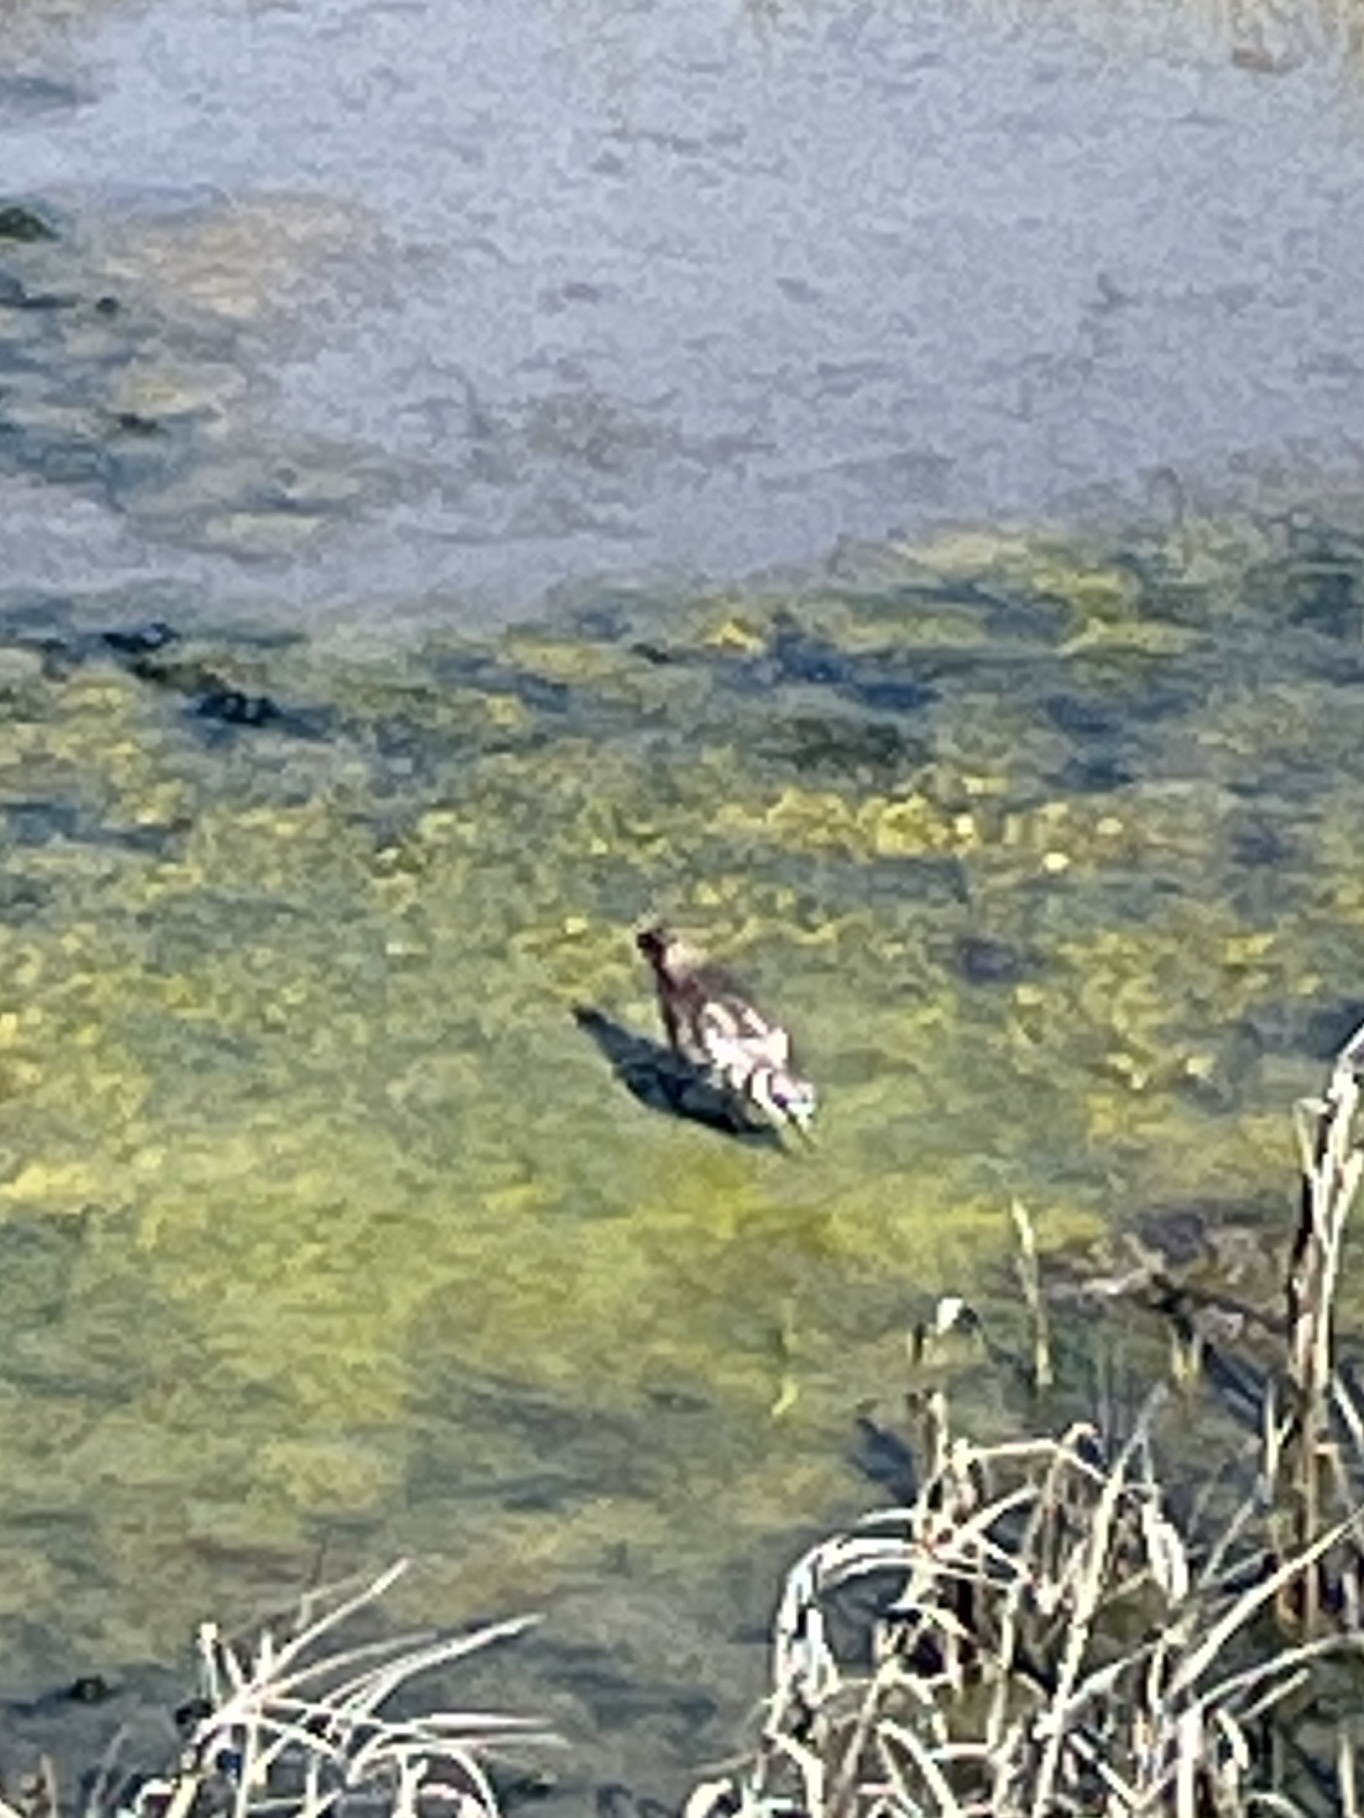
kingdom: Animalia
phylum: Chordata
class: Aves
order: Charadriiformes
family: Charadriidae
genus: Charadrius
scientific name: Charadrius vociferus
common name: Killdeer
